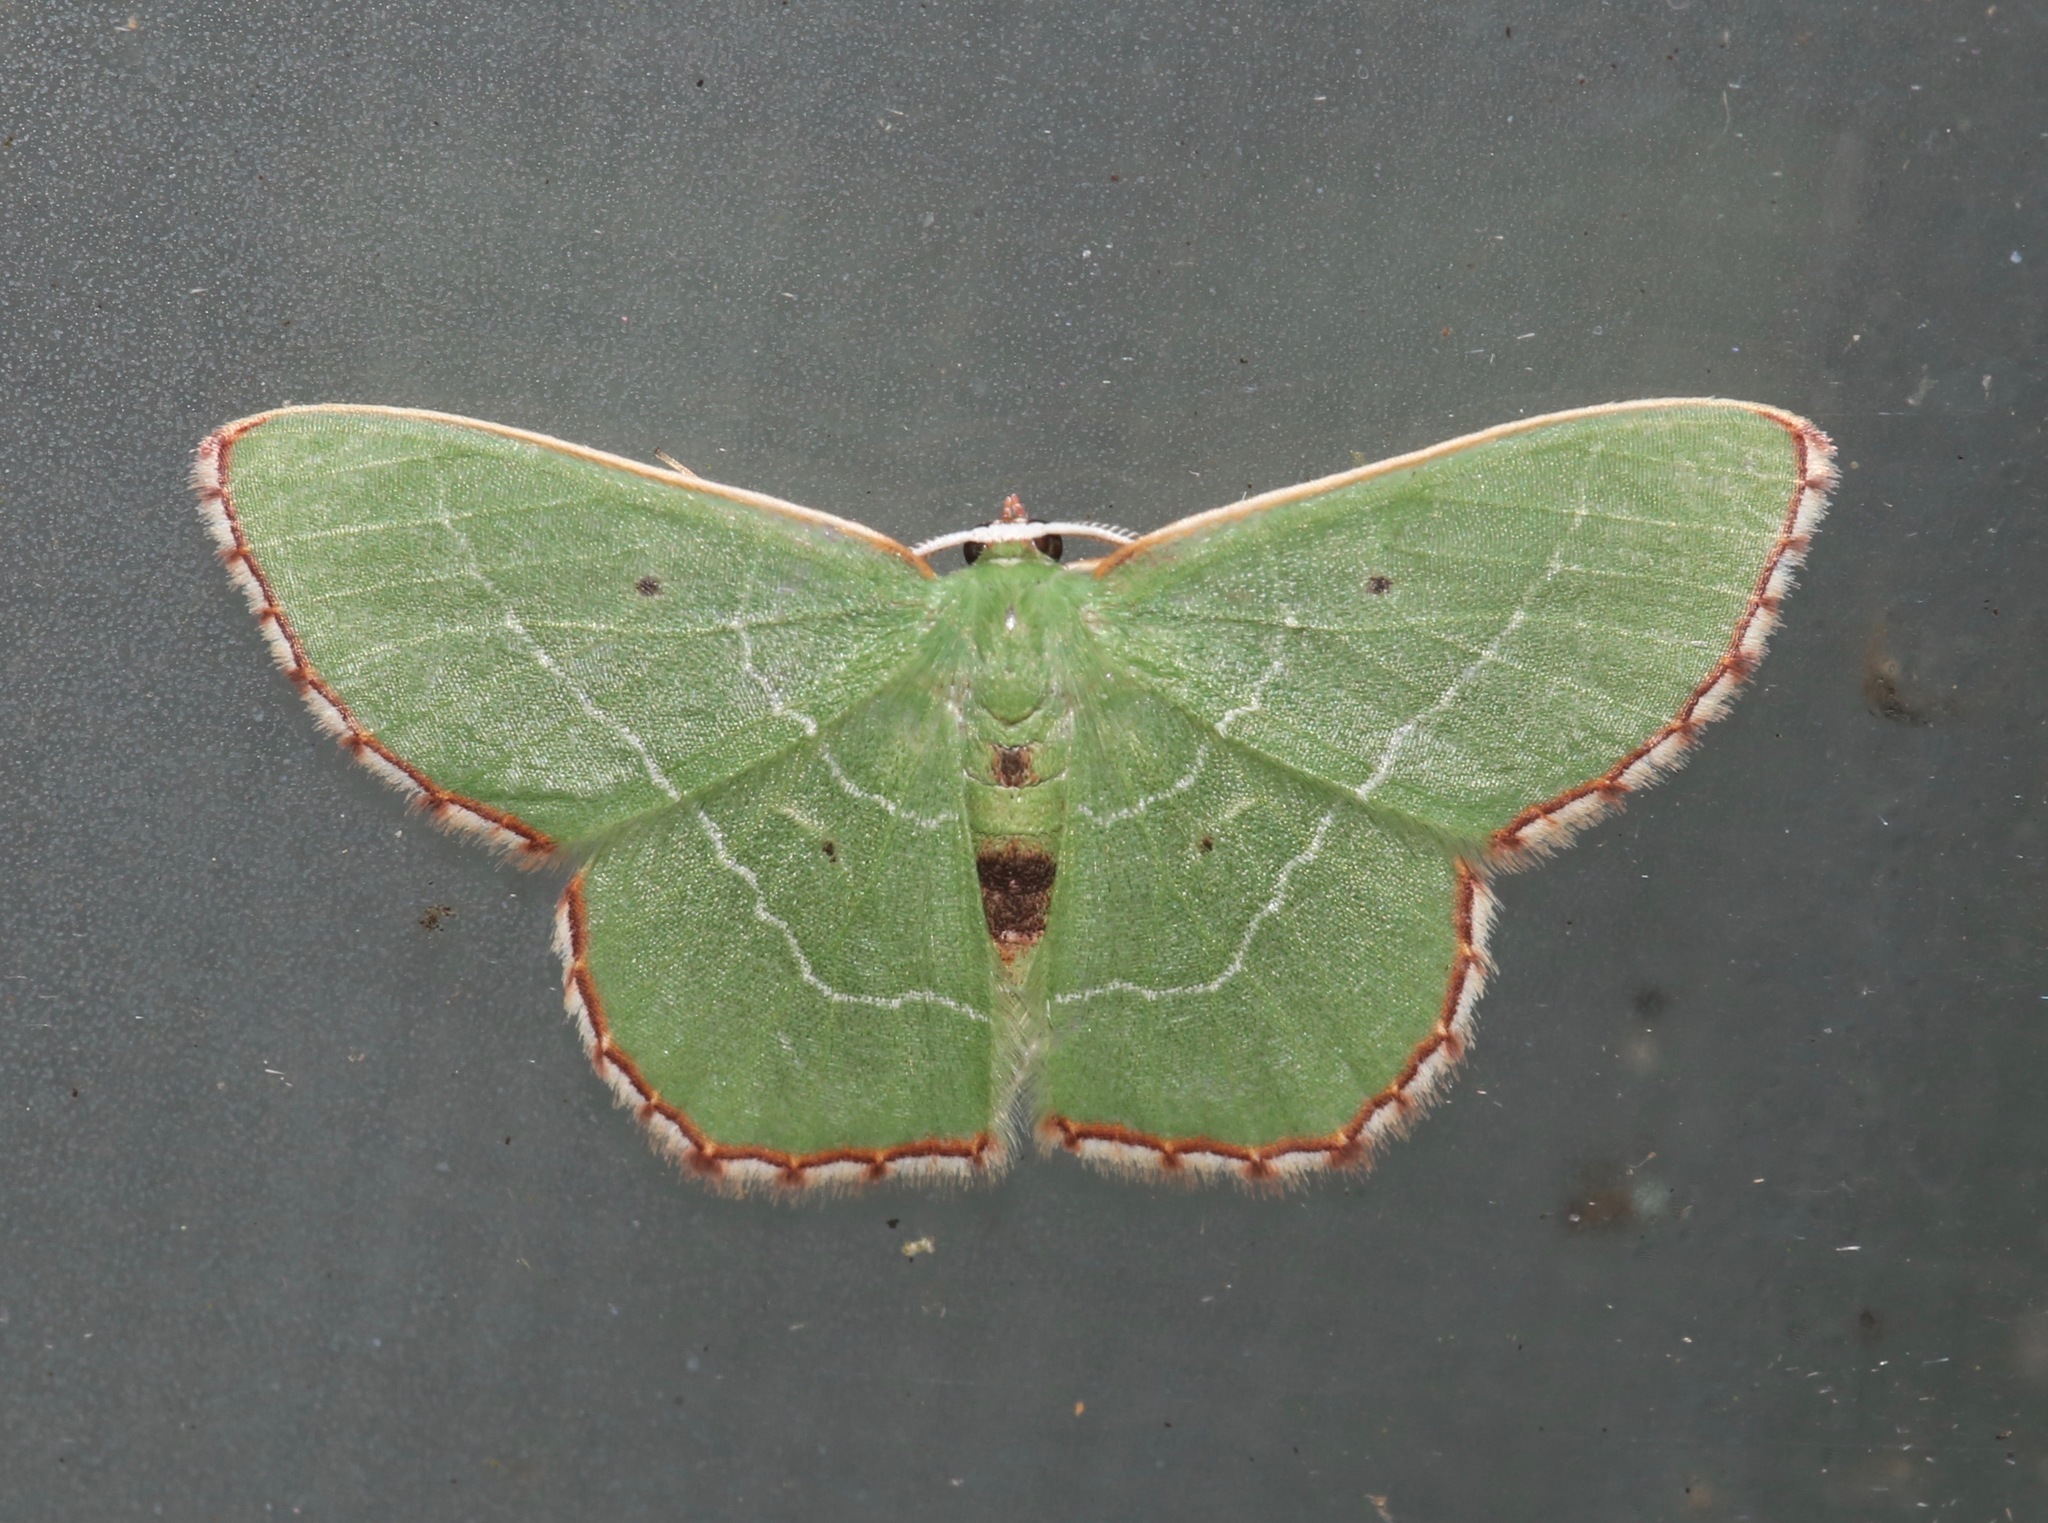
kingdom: Animalia
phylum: Arthropoda
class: Insecta
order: Lepidoptera
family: Geometridae
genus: Nemoria
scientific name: Nemoria saturiba
